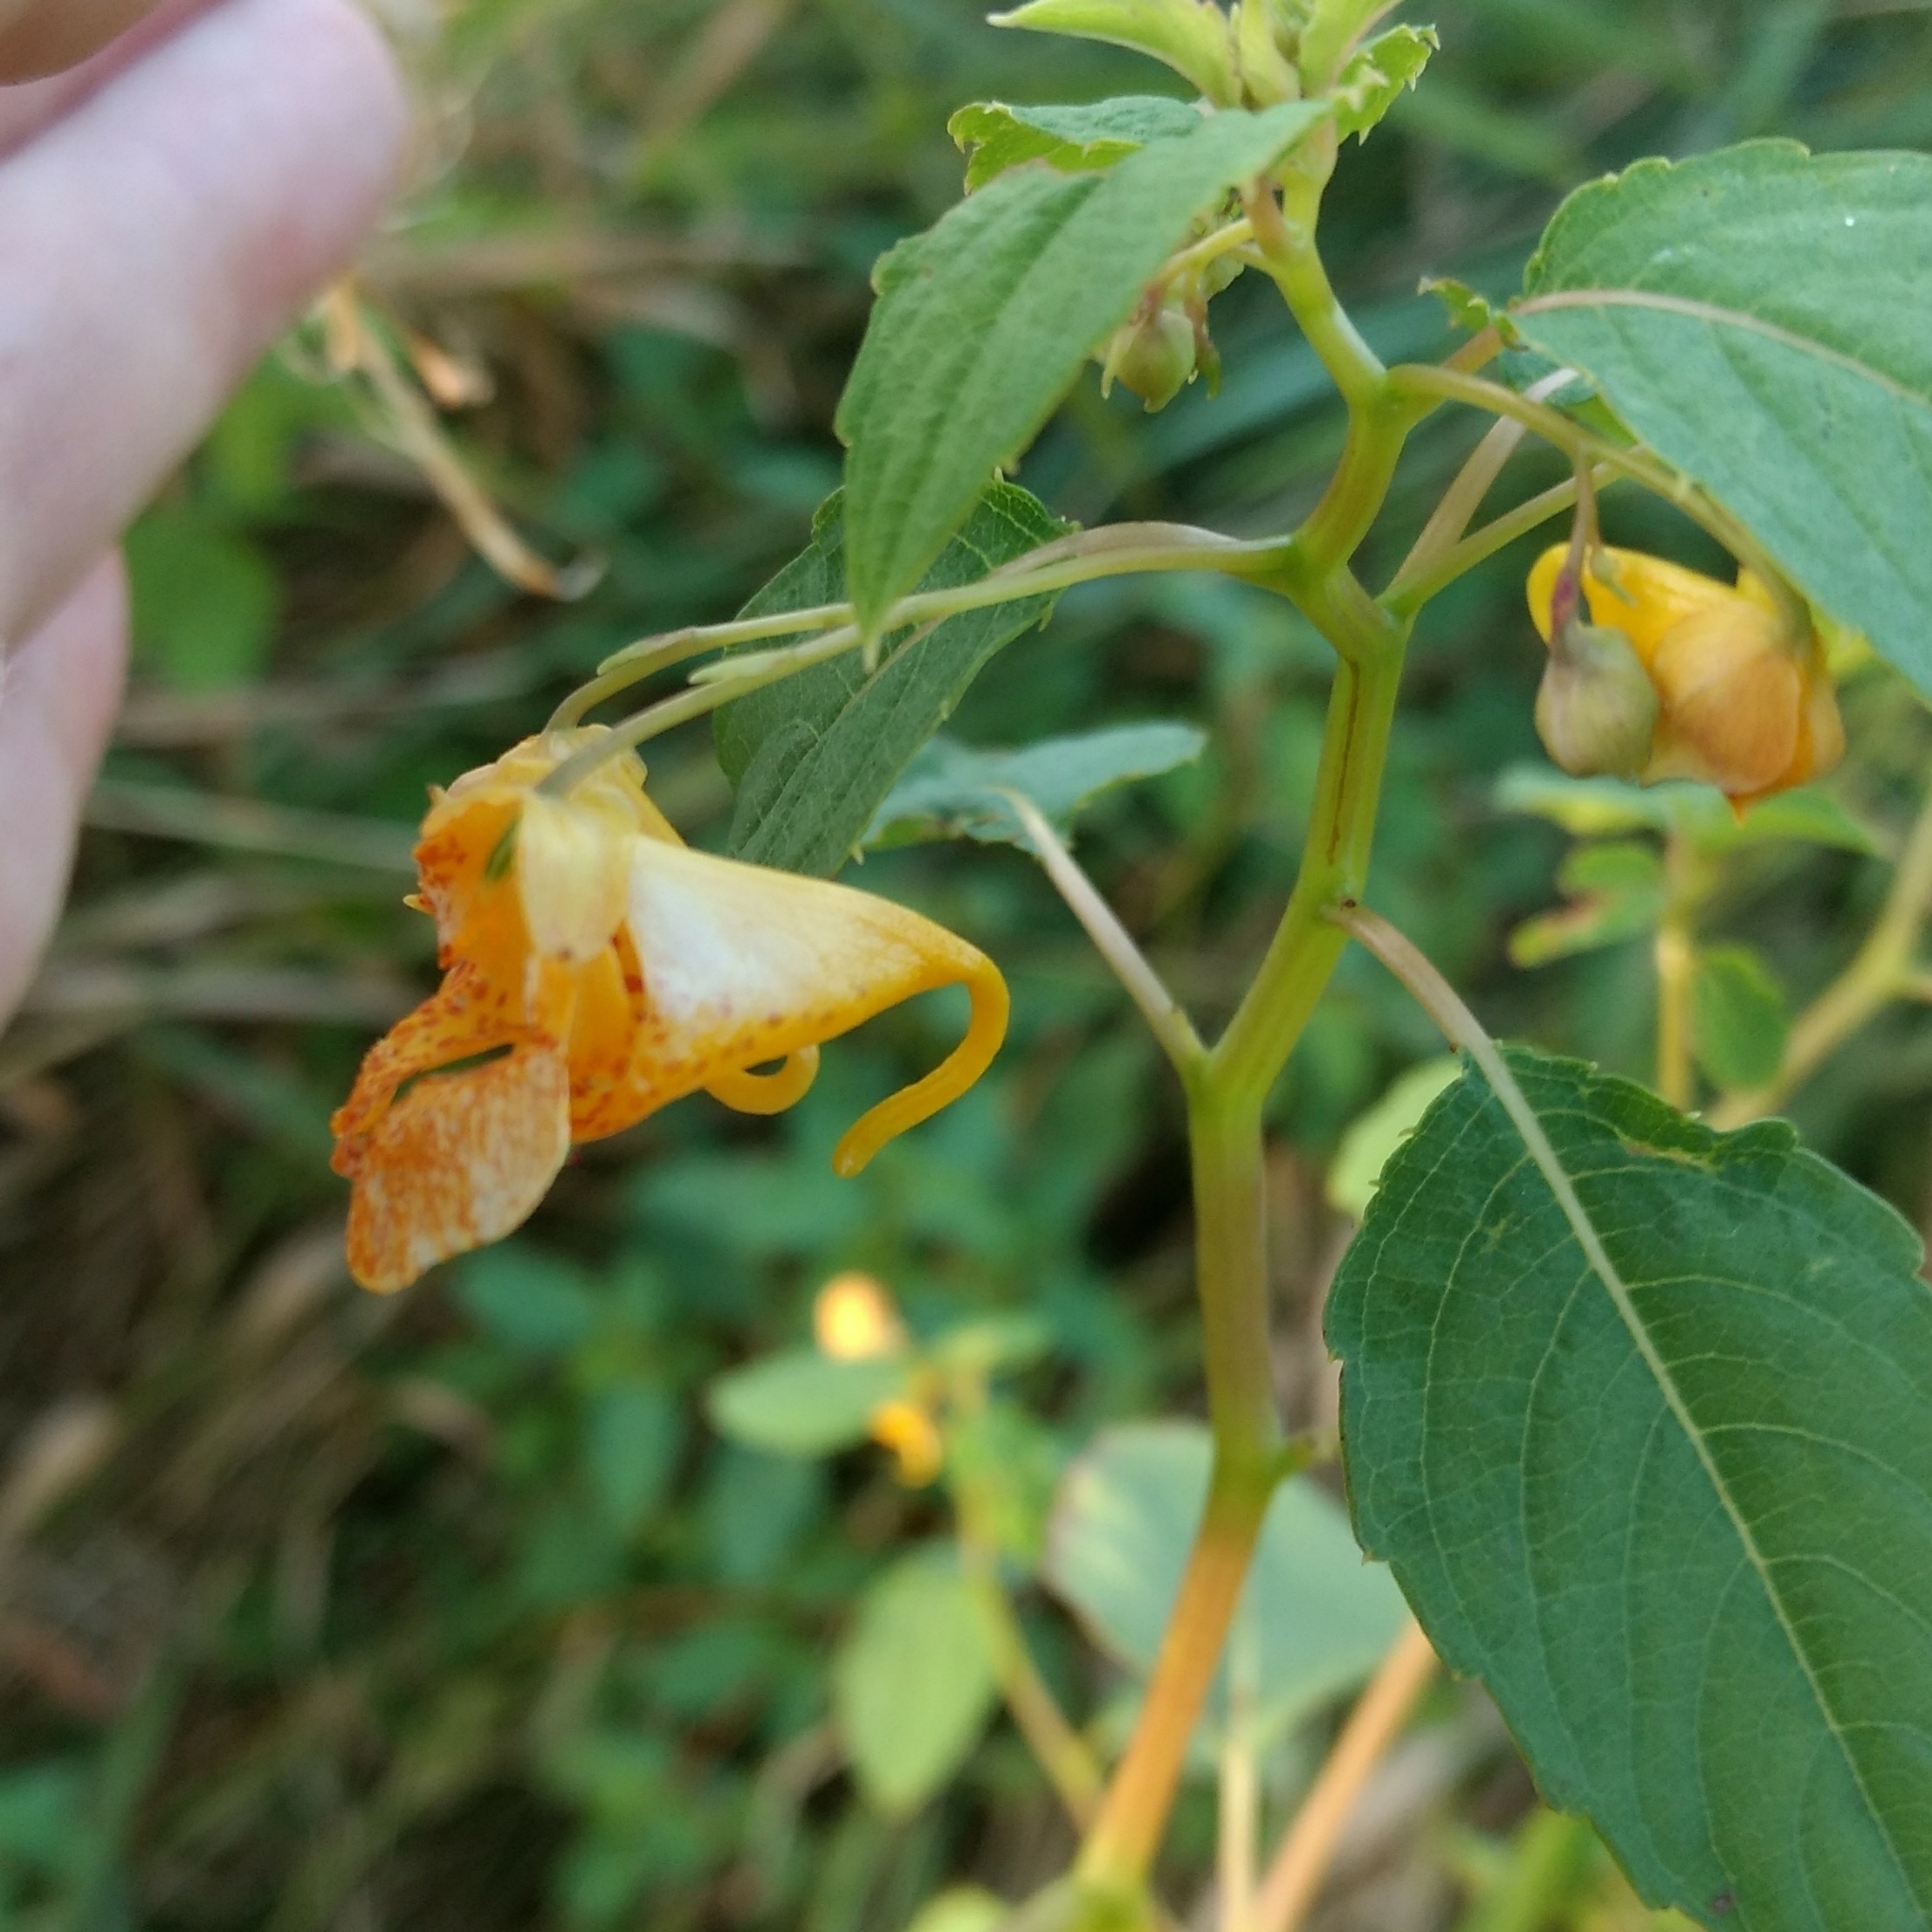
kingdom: Plantae
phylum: Tracheophyta
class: Magnoliopsida
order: Ericales
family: Balsaminaceae
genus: Impatiens
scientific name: Impatiens capensis
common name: Orange balsam
